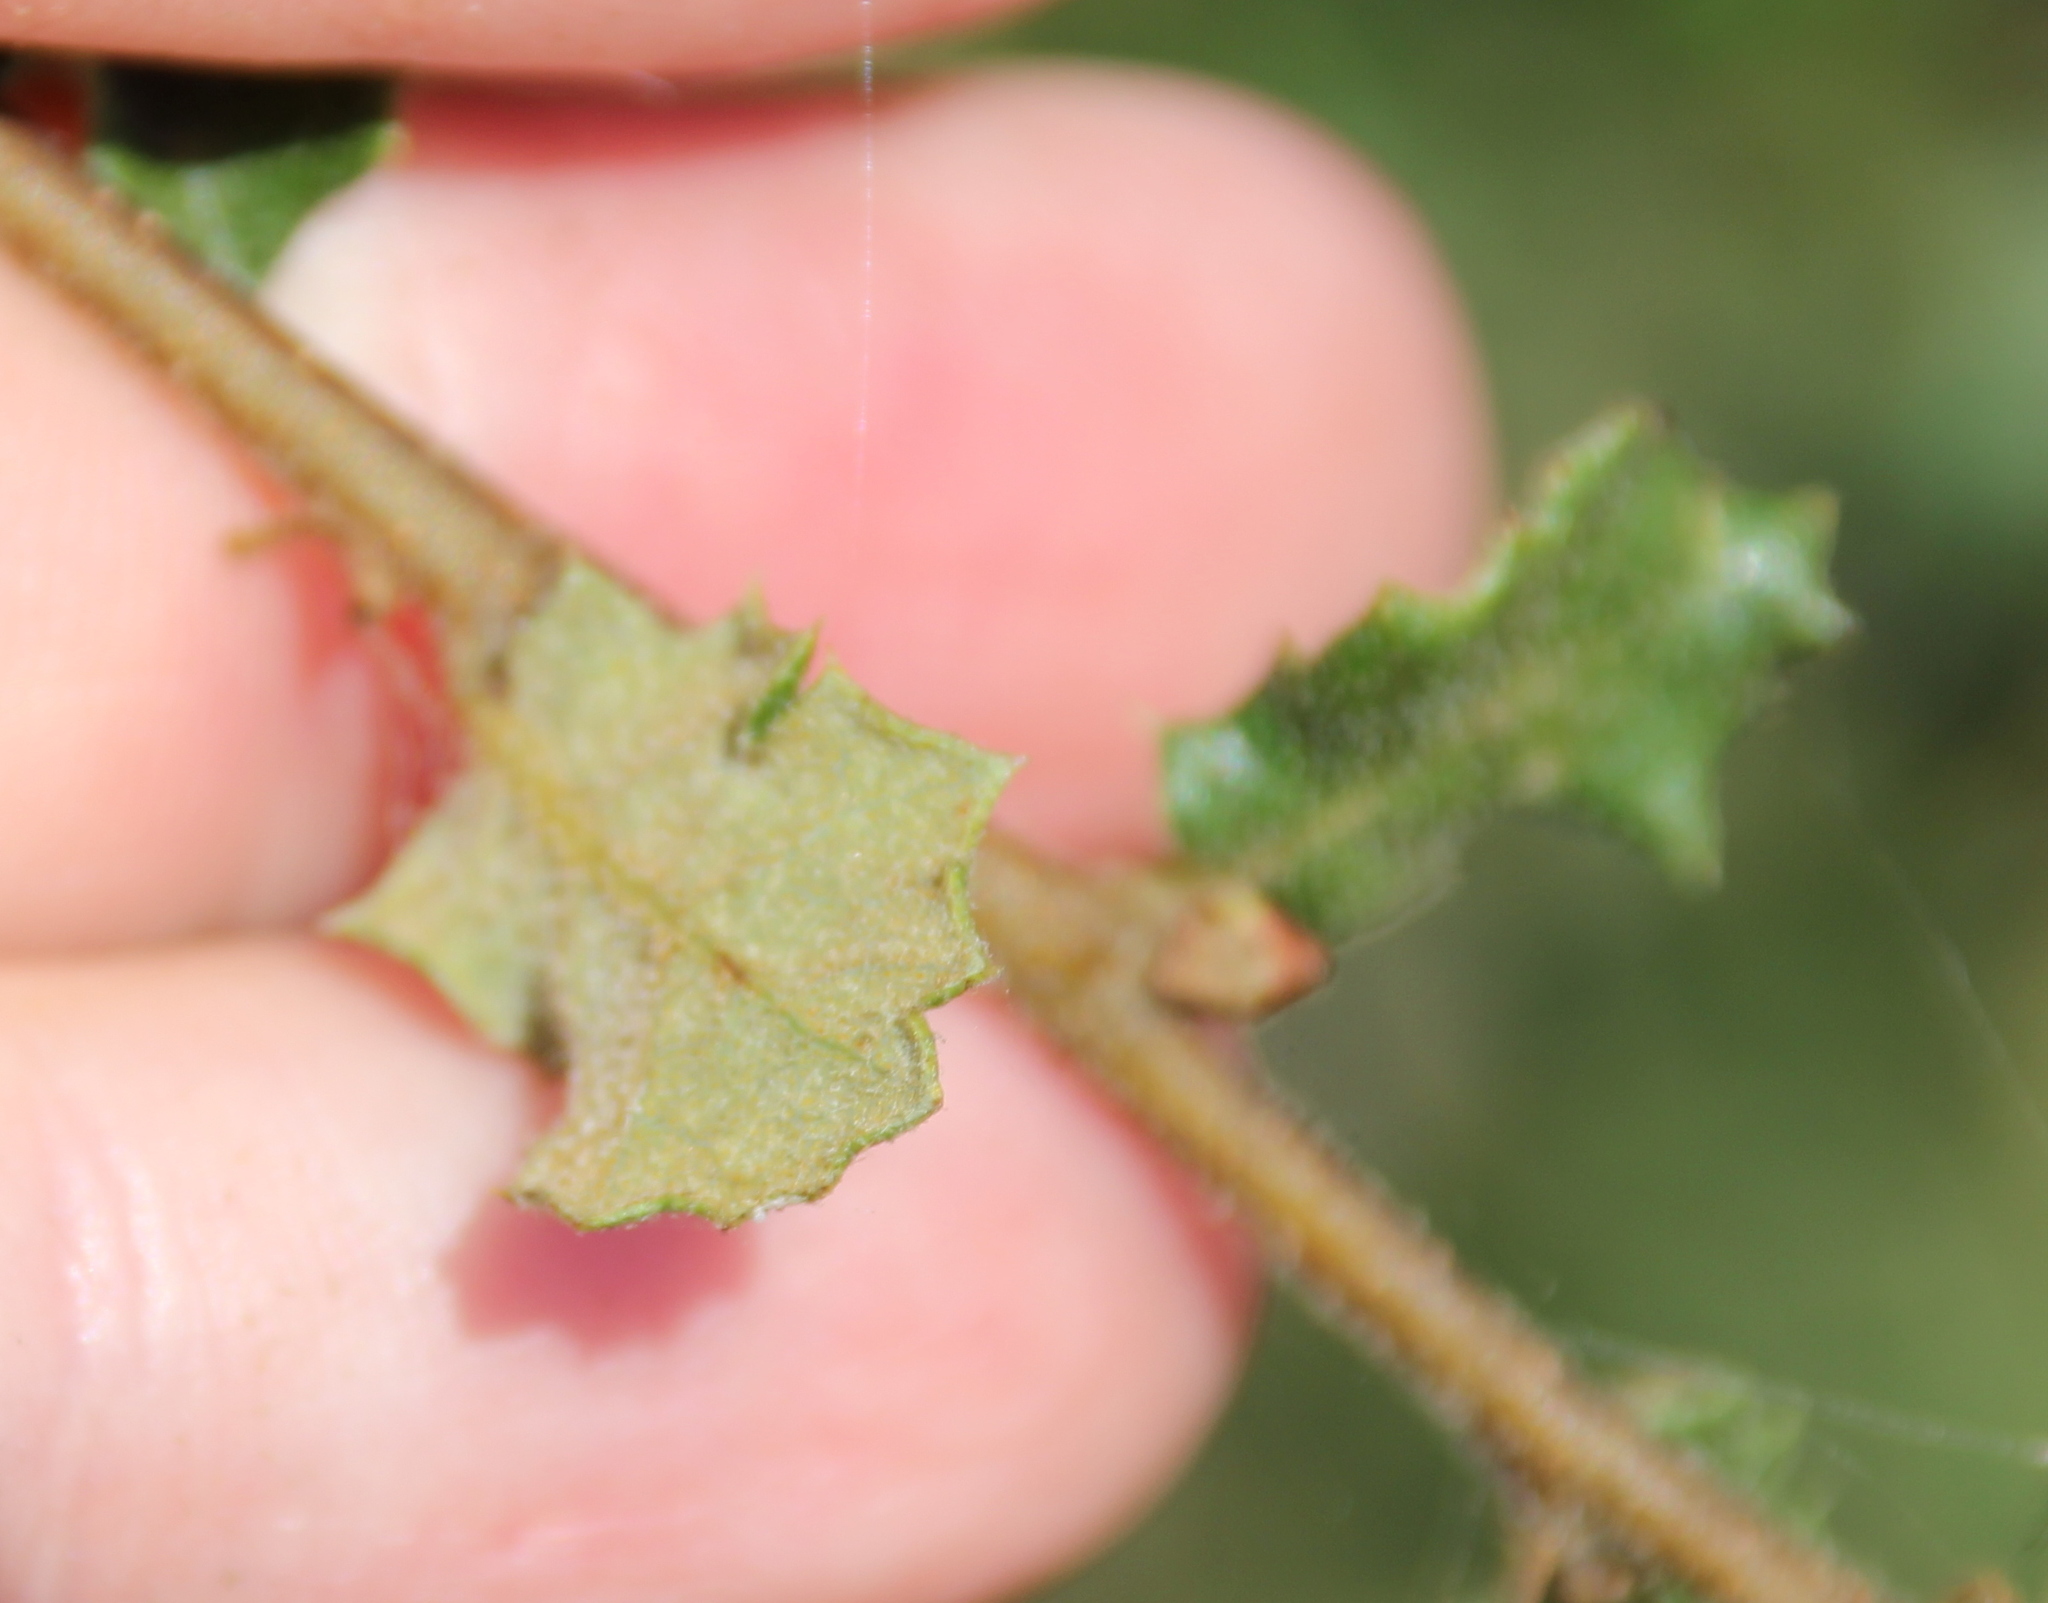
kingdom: Plantae
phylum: Tracheophyta
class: Magnoliopsida
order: Fagales
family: Fagaceae
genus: Quercus
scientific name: Quercus dumosa
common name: Coastal sage scrub oak
